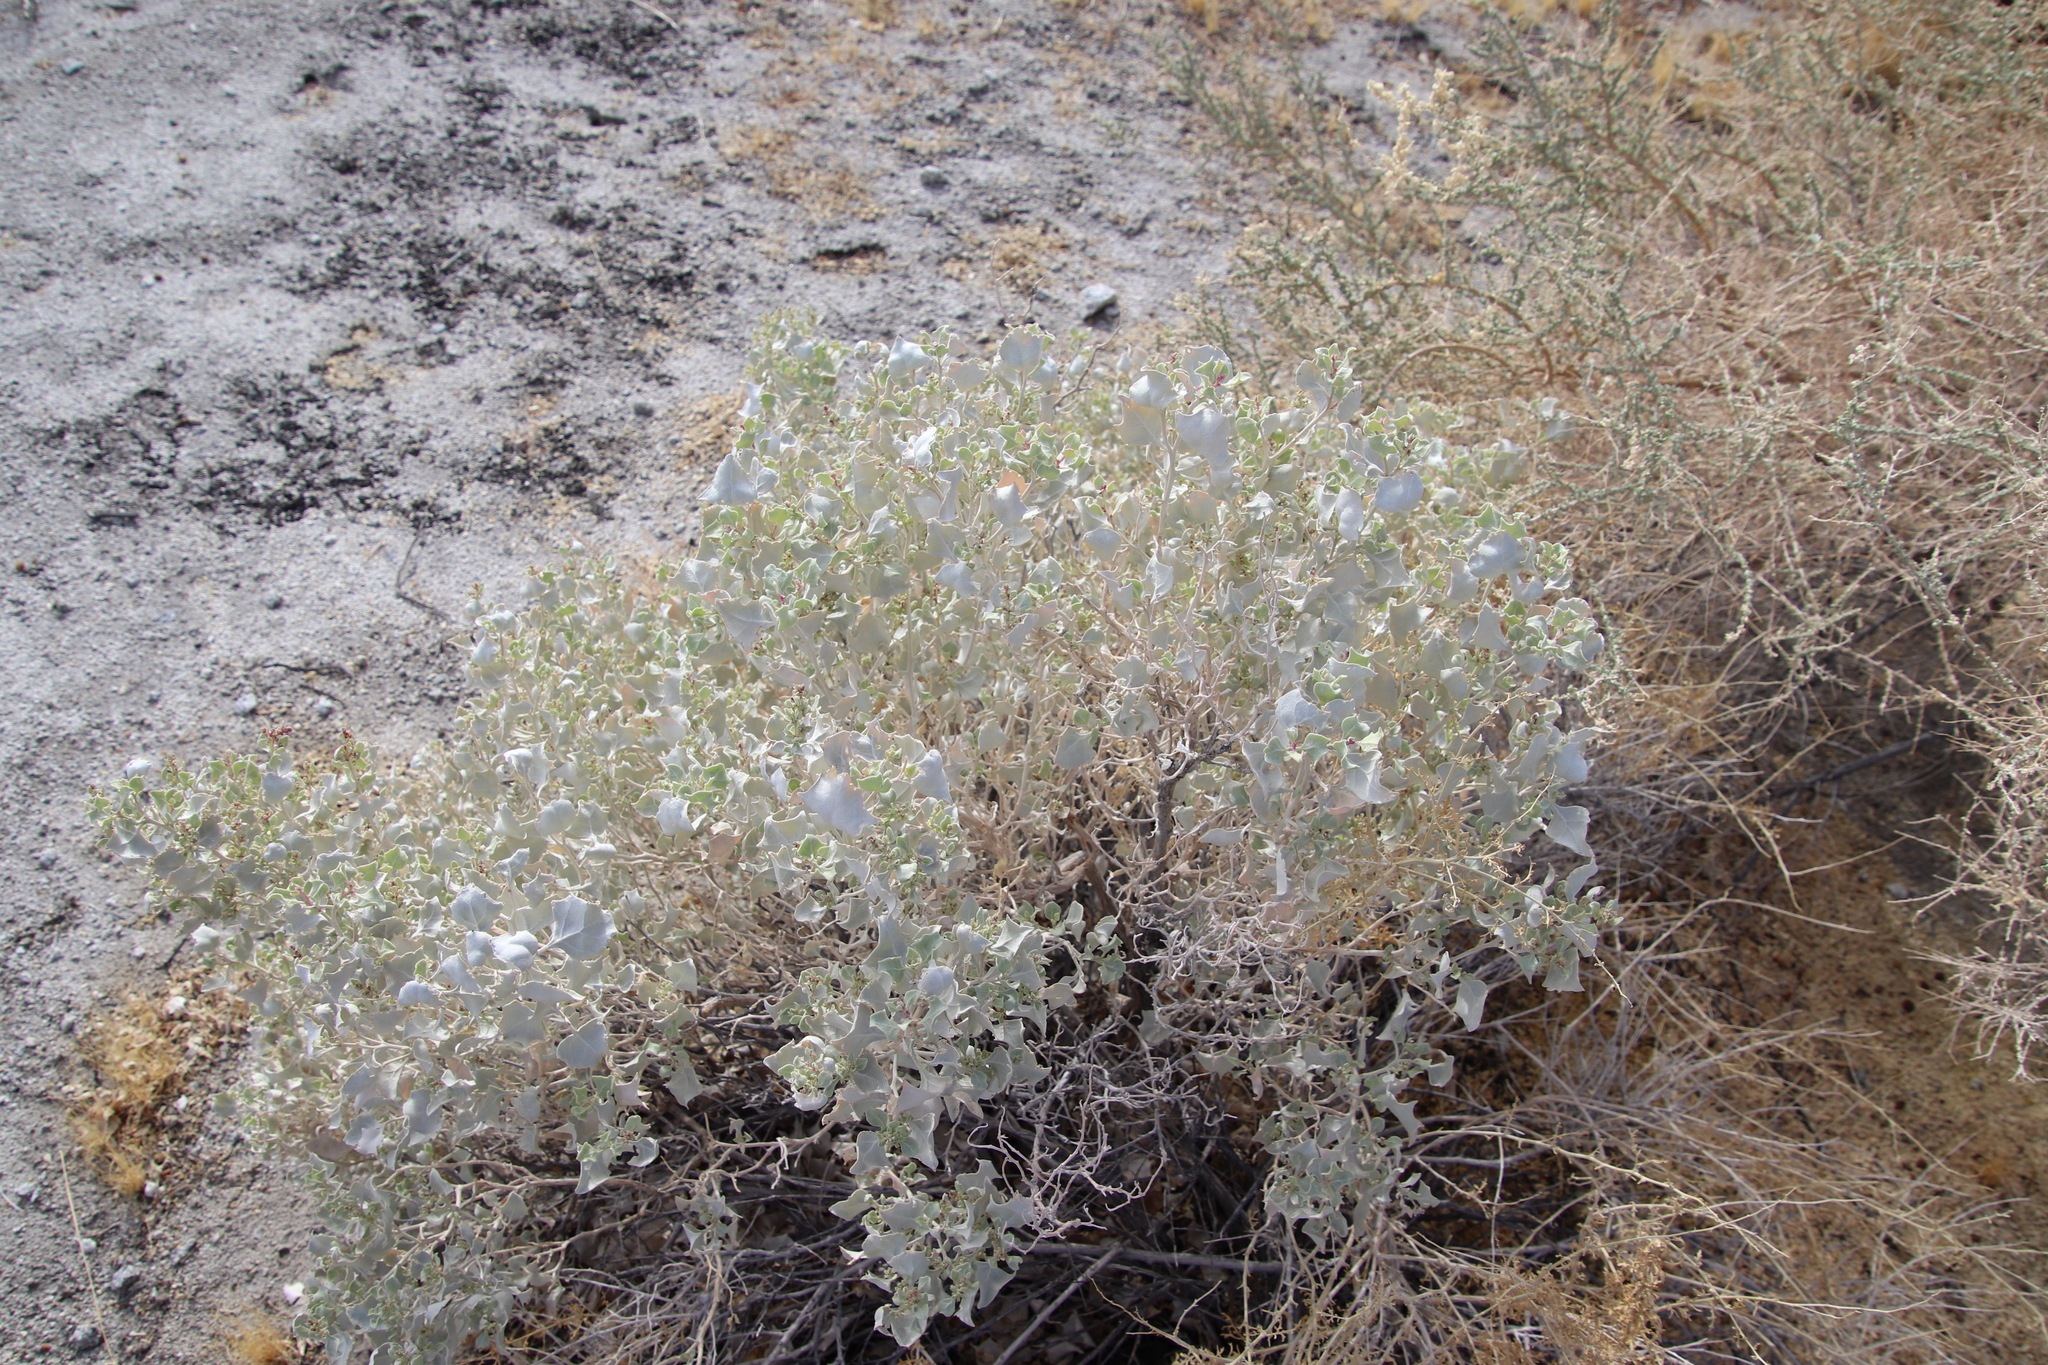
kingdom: Plantae
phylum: Tracheophyta
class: Magnoliopsida
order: Caryophyllales
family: Amaranthaceae
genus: Atriplex
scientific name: Atriplex hymenelytra
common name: Desert-holly
